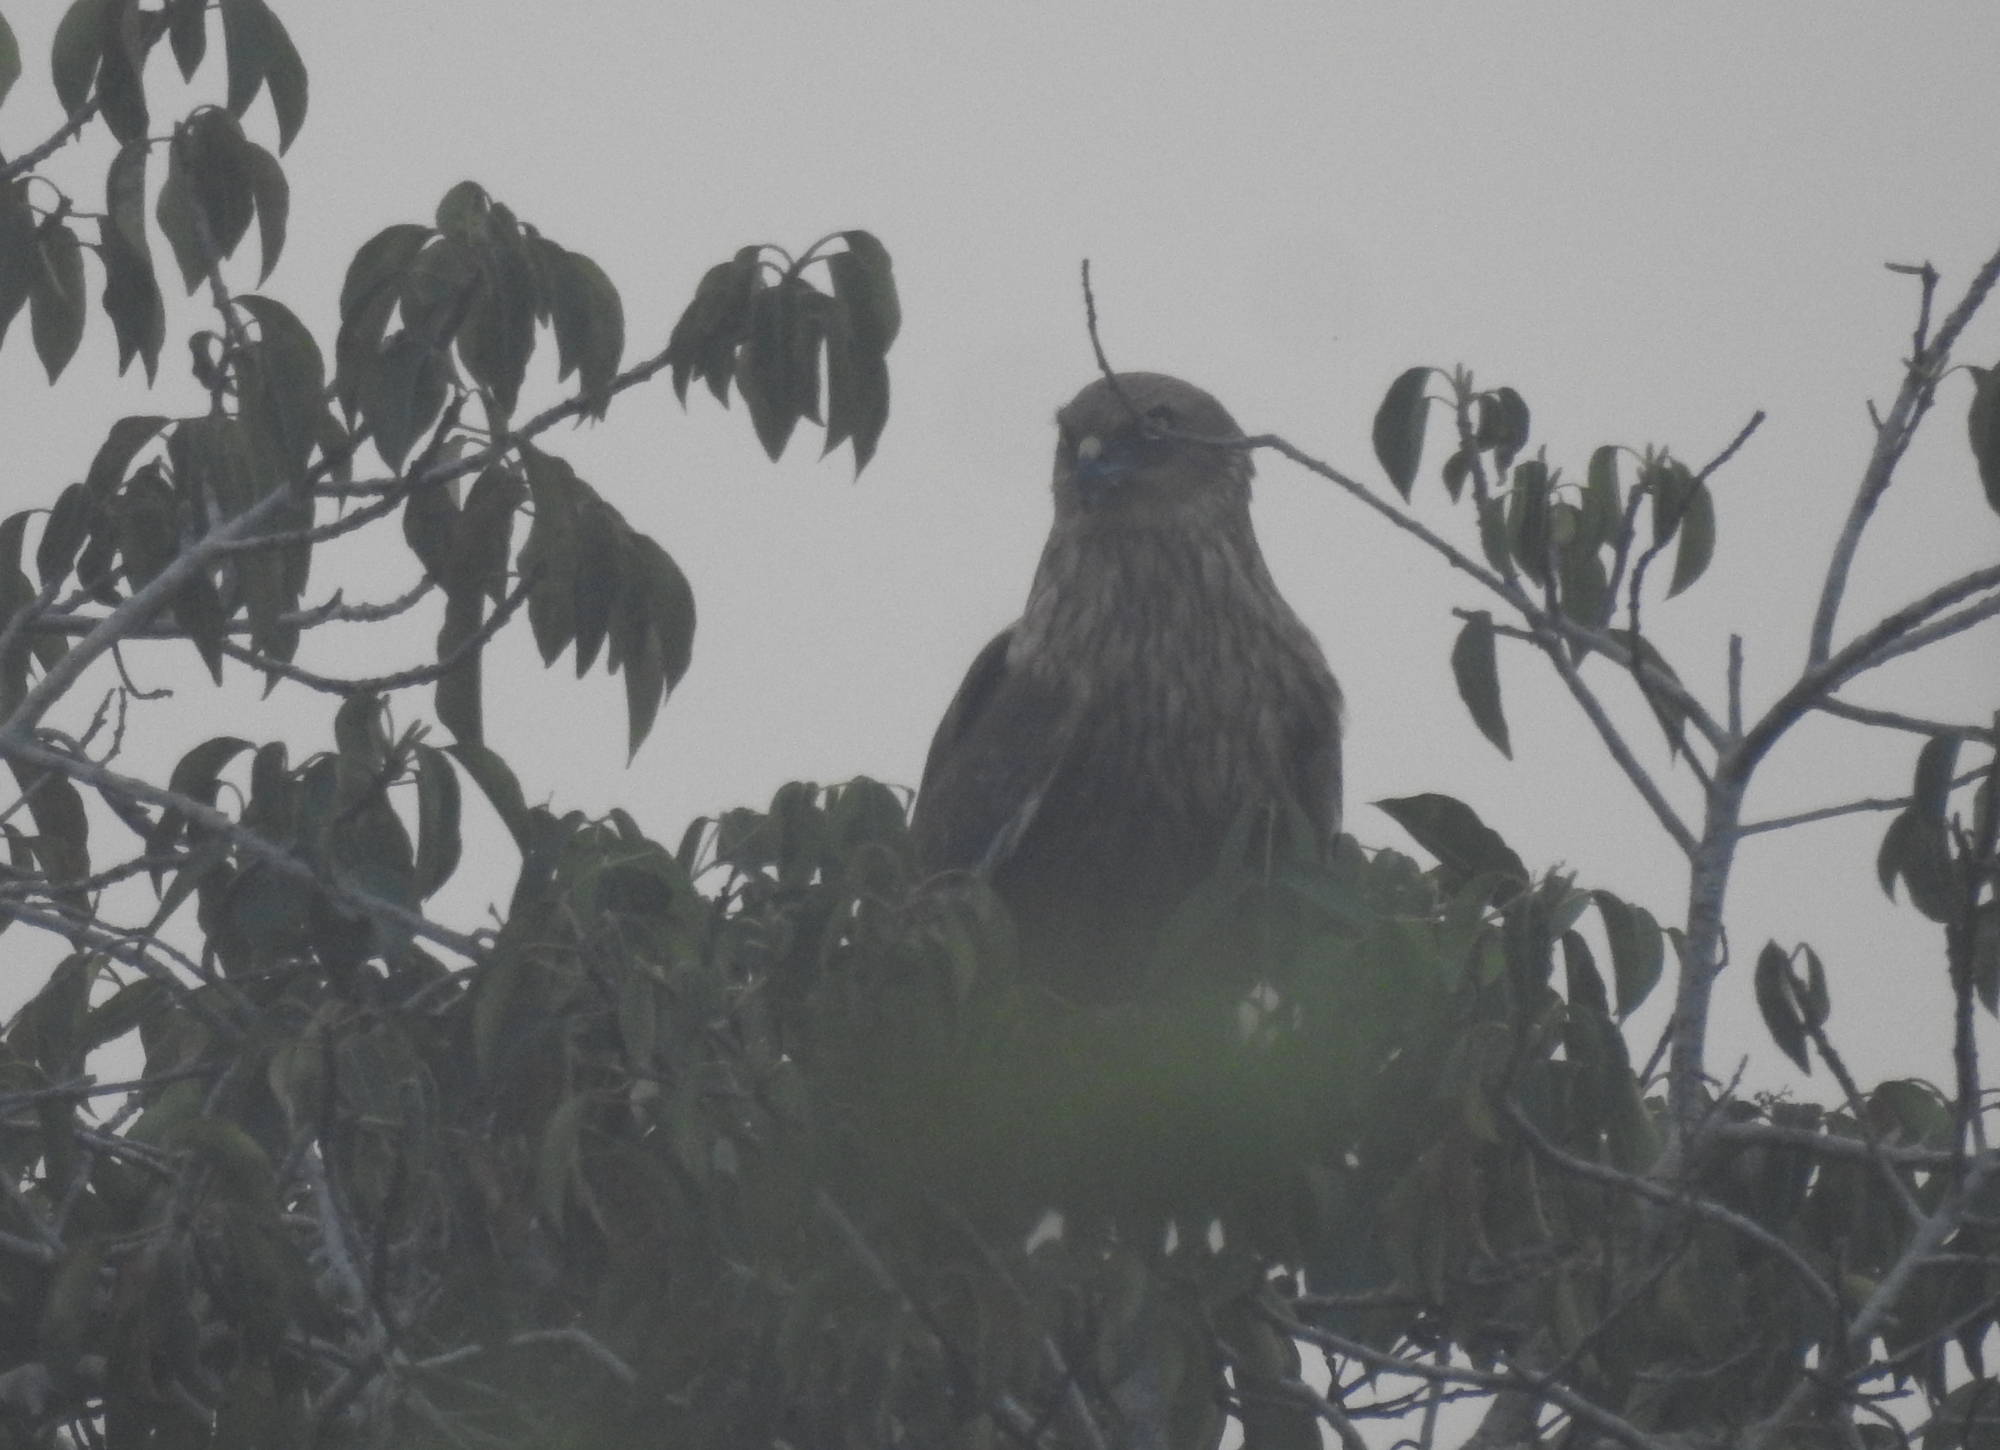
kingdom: Animalia
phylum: Chordata
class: Aves
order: Accipitriformes
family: Accipitridae
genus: Circus
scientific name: Circus aeruginosus
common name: Western marsh harrier
